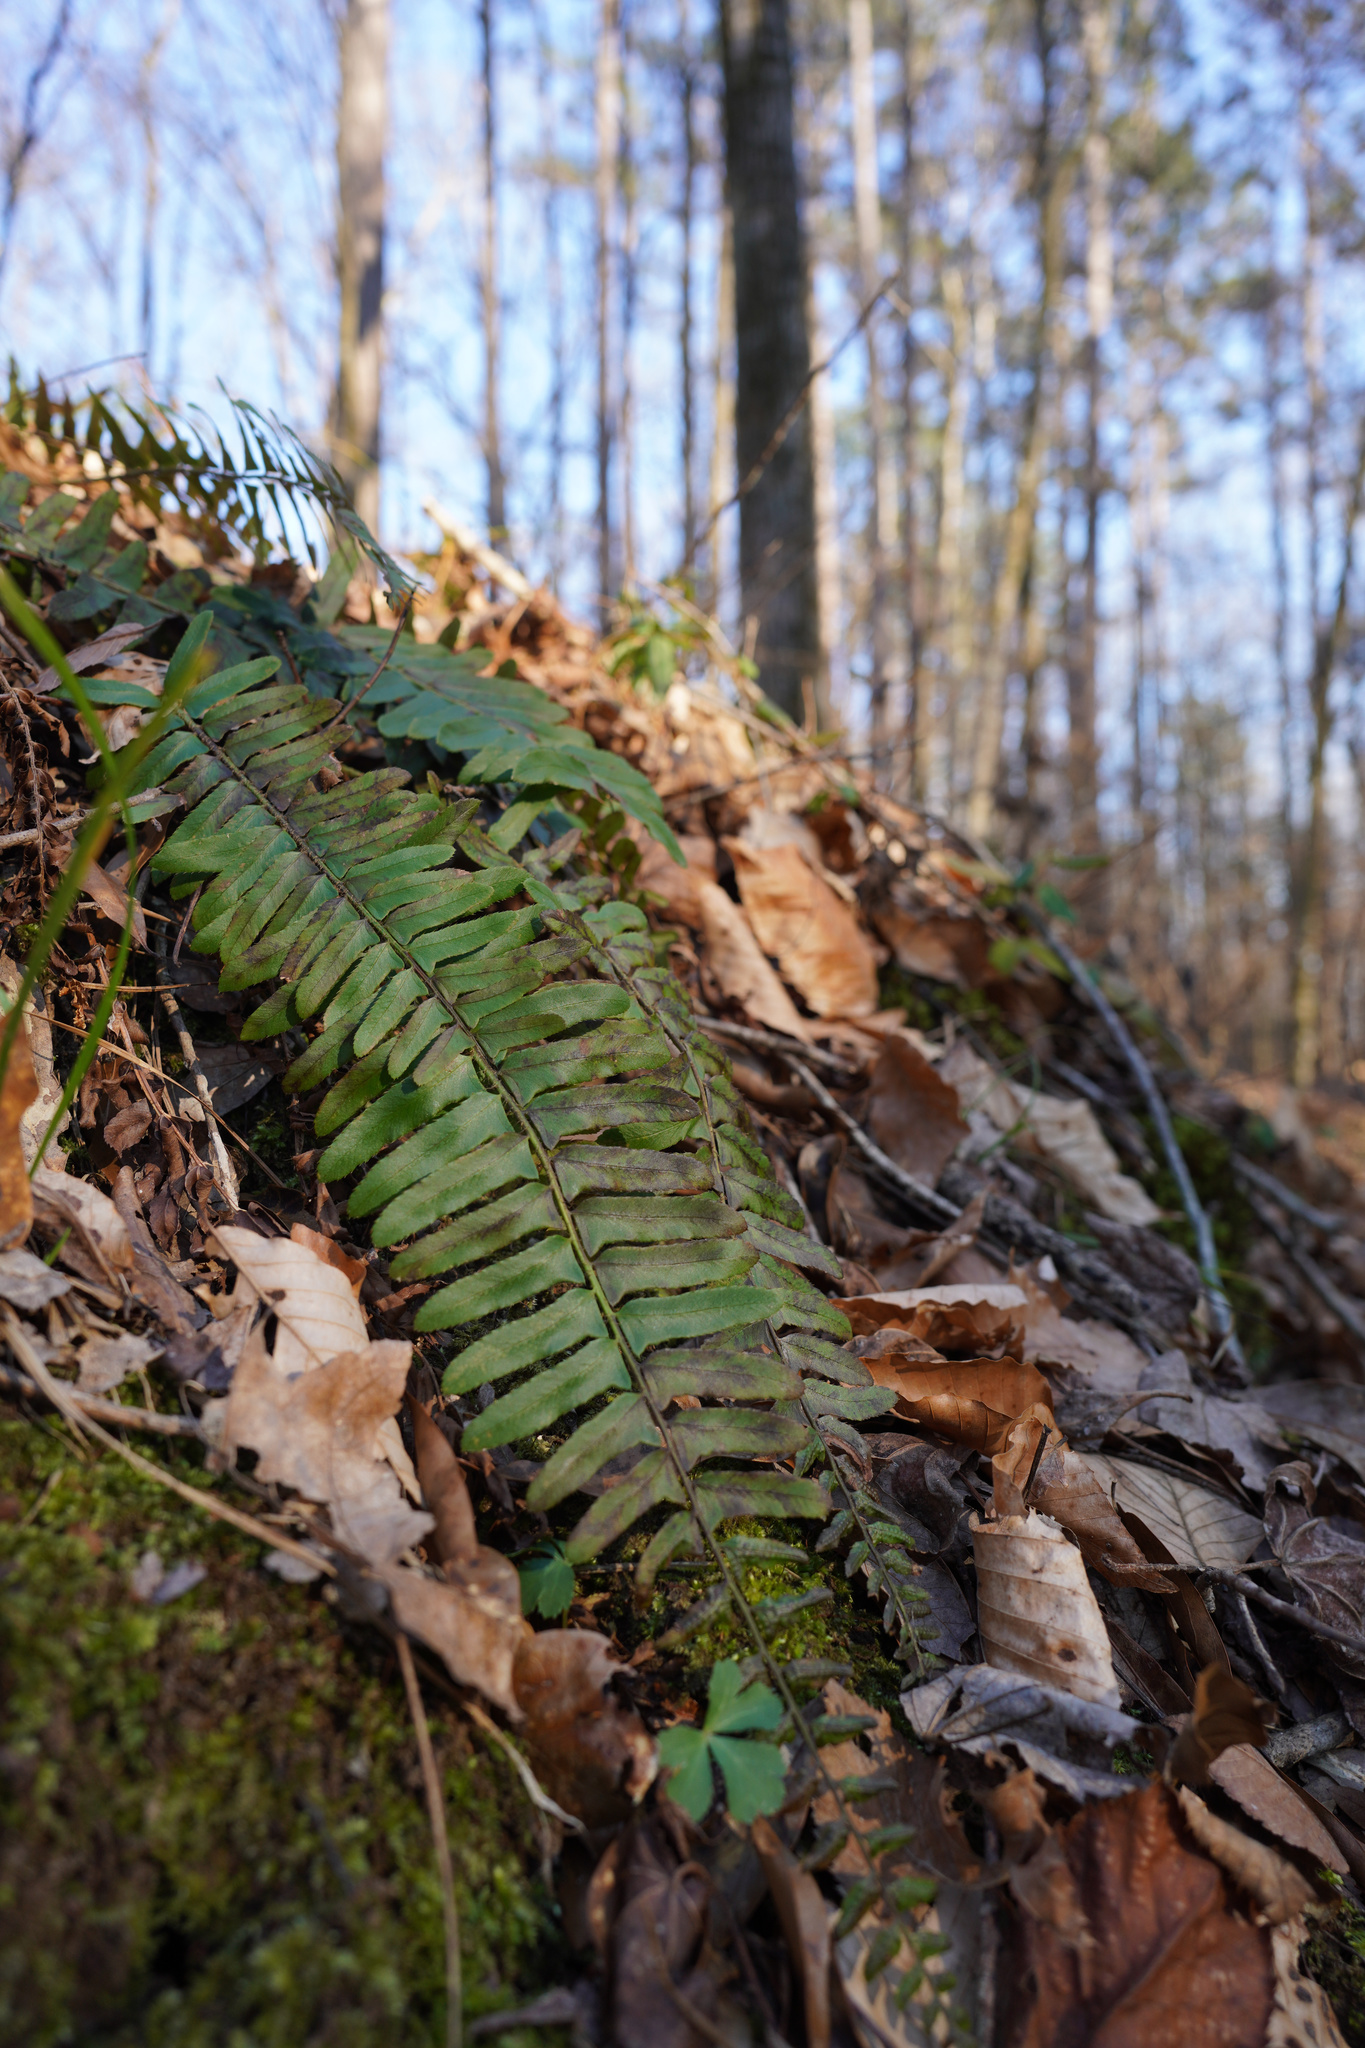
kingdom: Plantae
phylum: Tracheophyta
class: Polypodiopsida
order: Polypodiales
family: Dryopteridaceae
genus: Polystichum
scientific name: Polystichum acrostichoides
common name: Christmas fern
